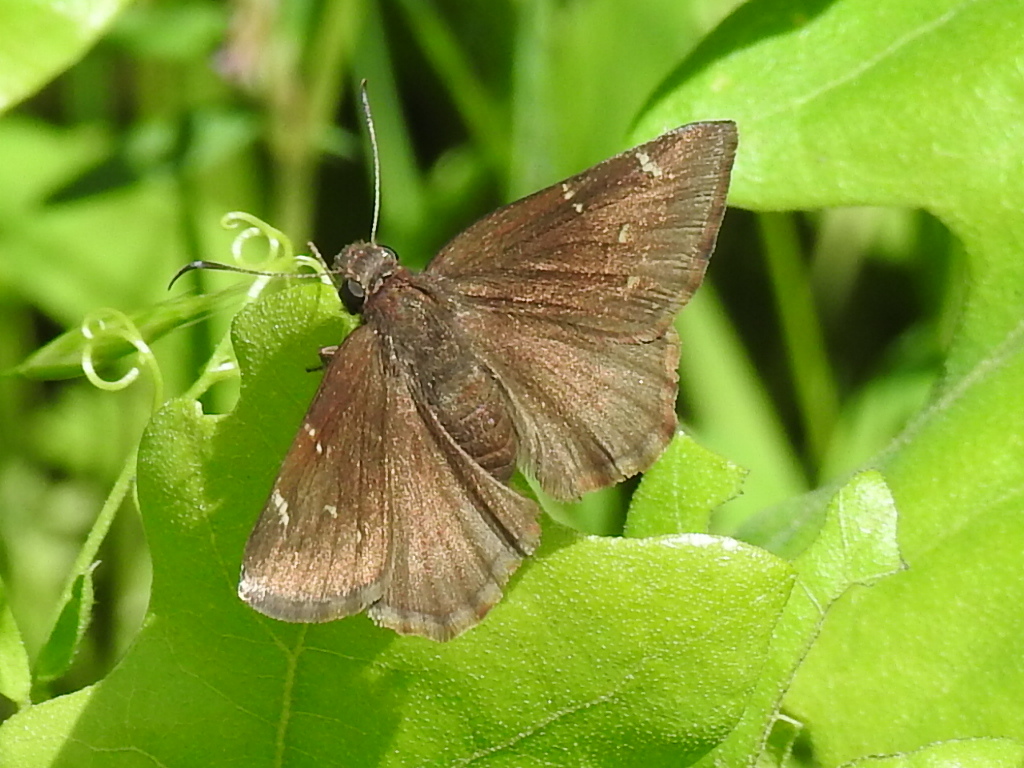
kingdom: Animalia
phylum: Arthropoda
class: Insecta
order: Lepidoptera
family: Hesperiidae
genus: Thorybes
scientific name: Thorybes pylades
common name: Northern cloudywing
